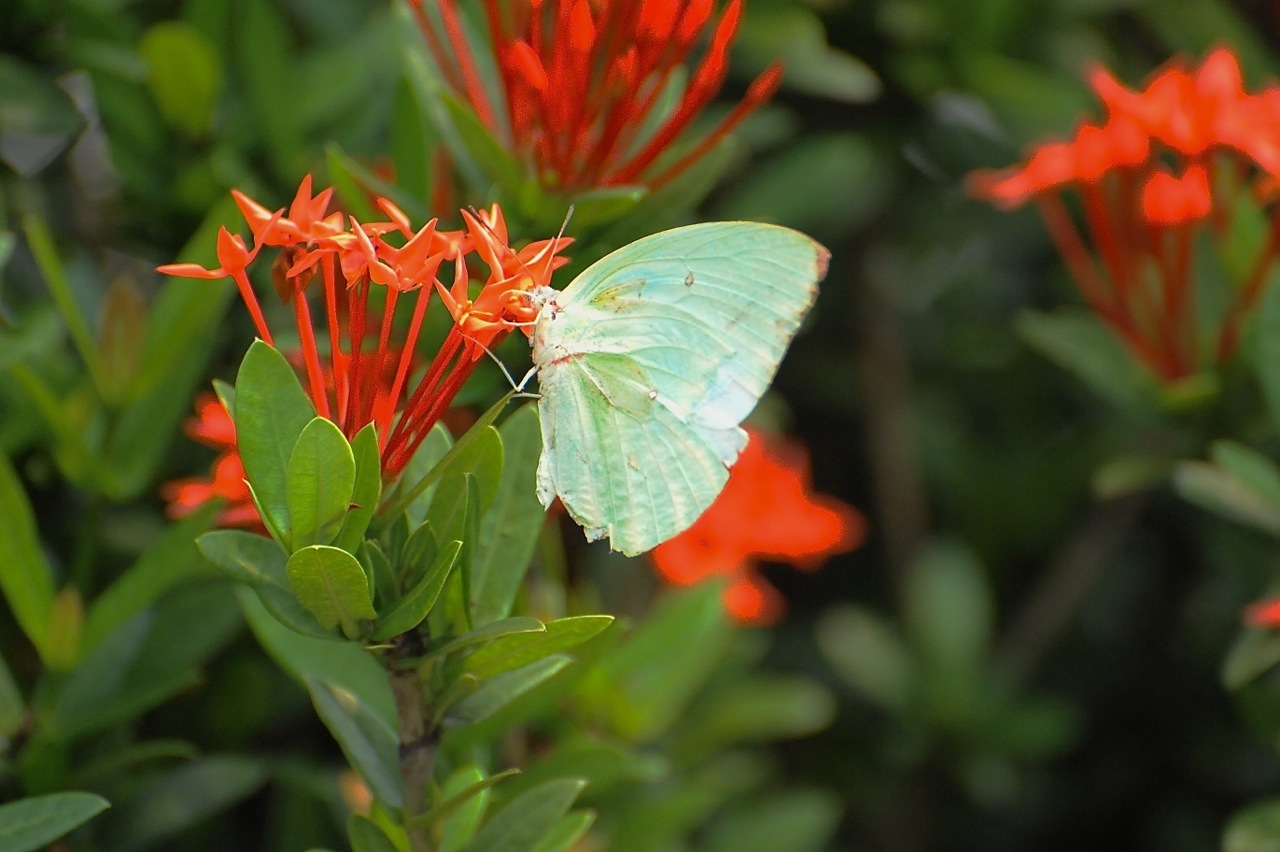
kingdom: Animalia
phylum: Arthropoda
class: Insecta
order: Lepidoptera
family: Pieridae
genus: Catopsilia
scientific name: Catopsilia pomona
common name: Common emigrant
